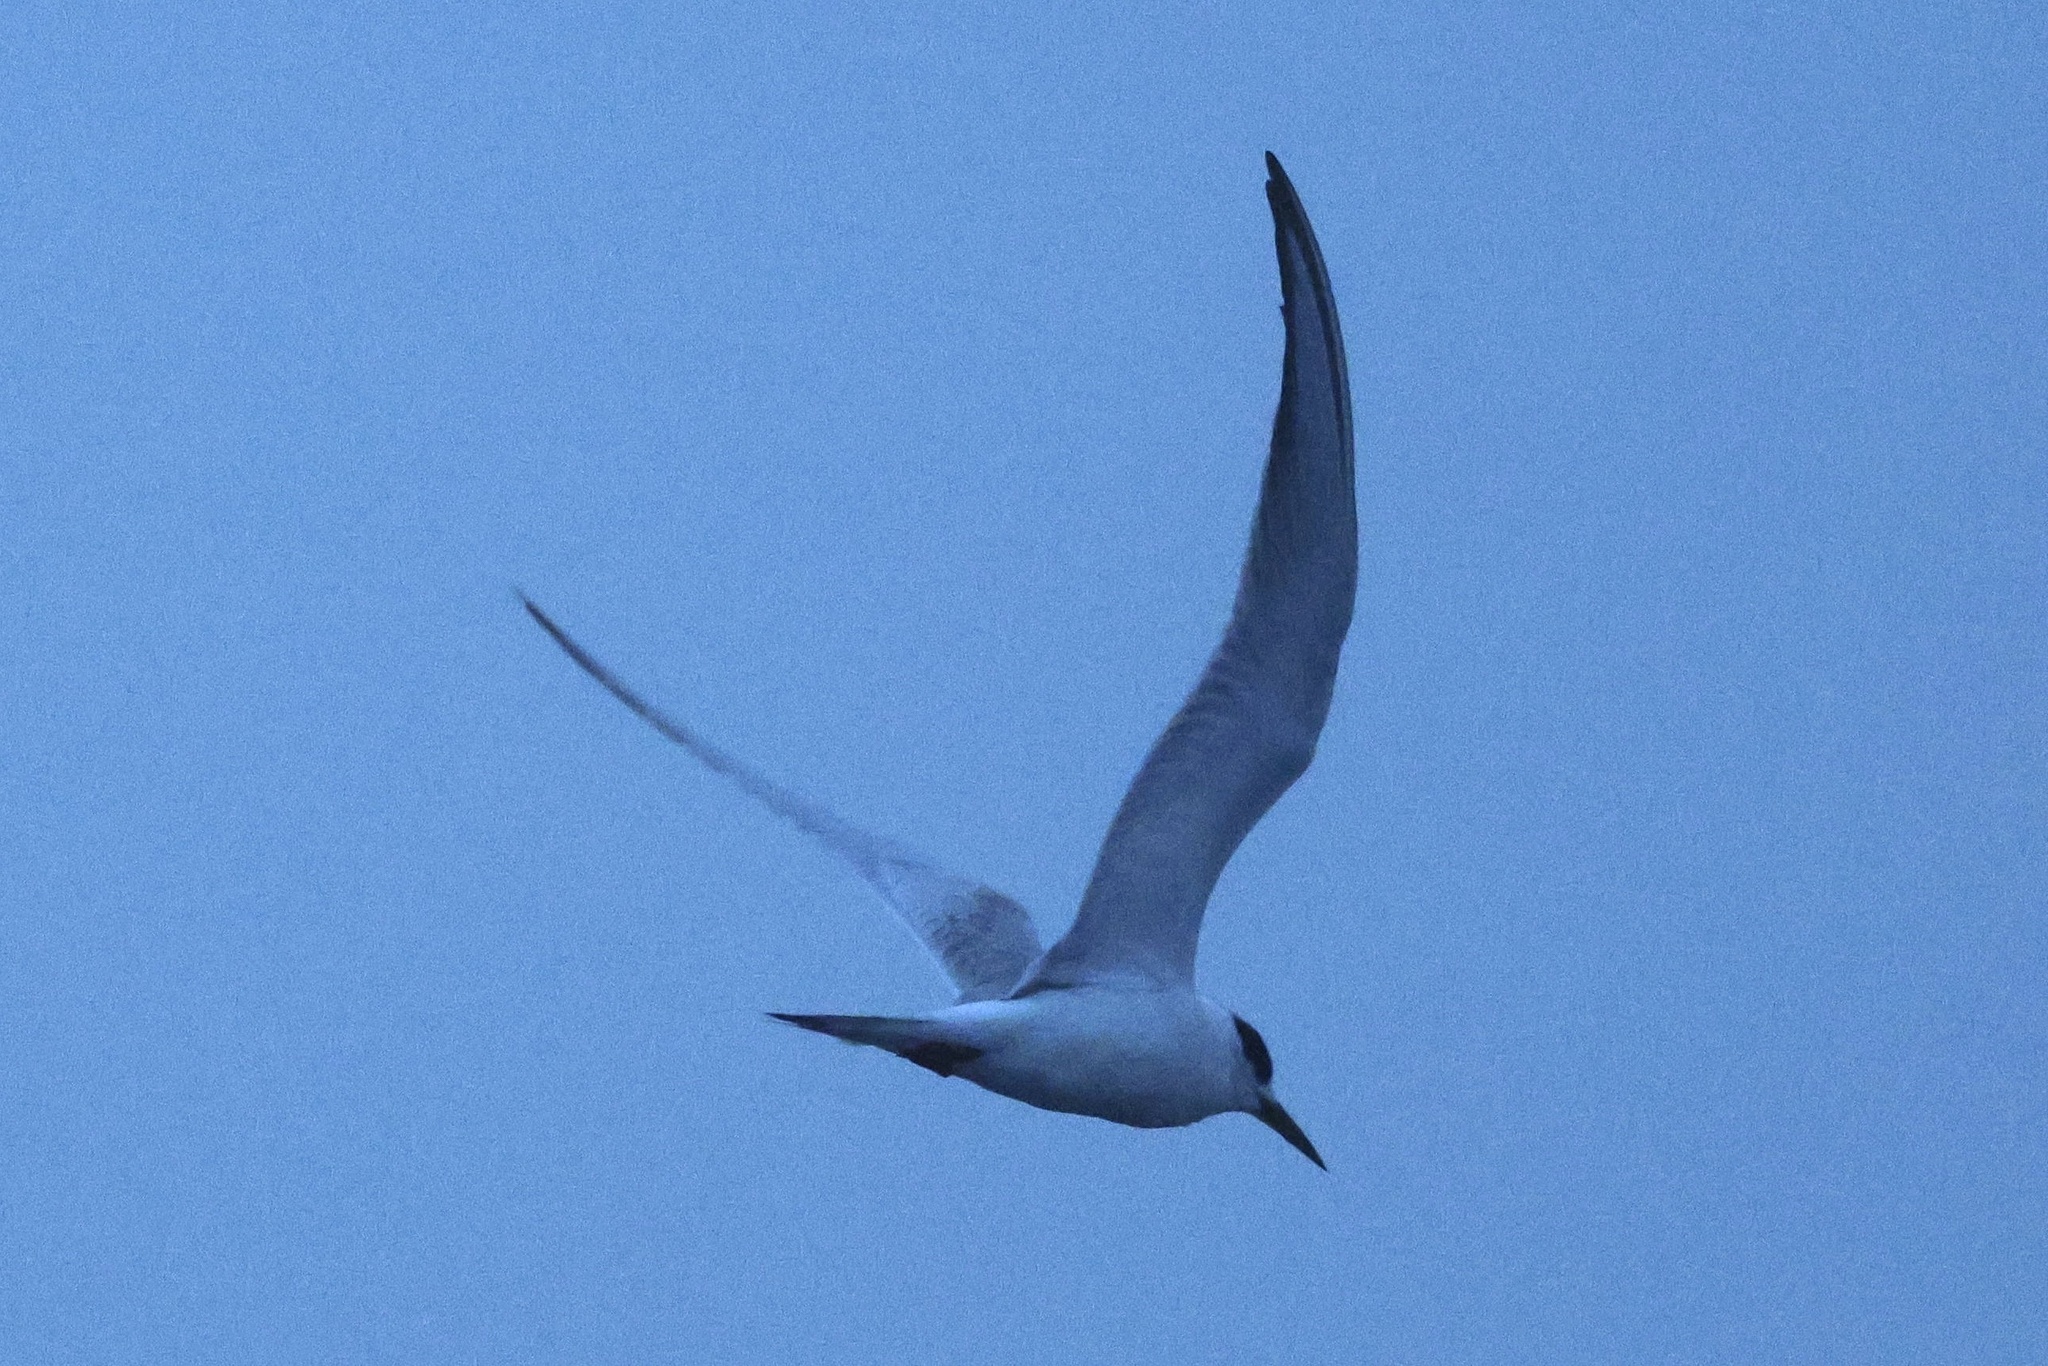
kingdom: Animalia
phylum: Chordata
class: Aves
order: Charadriiformes
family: Laridae
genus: Sterna
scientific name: Sterna forsteri
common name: Forster's tern
